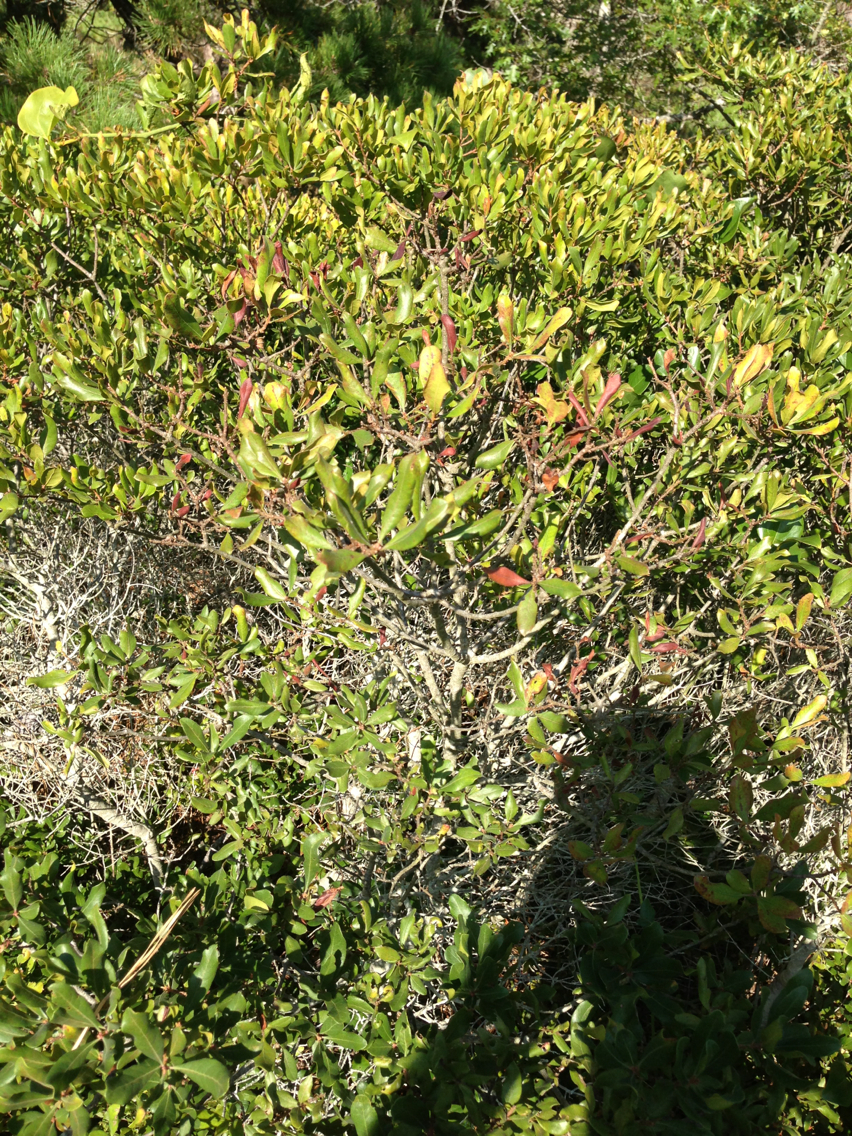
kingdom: Plantae
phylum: Tracheophyta
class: Magnoliopsida
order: Fagales
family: Myricaceae
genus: Morella
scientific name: Morella pensylvanica
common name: Northern bayberry
